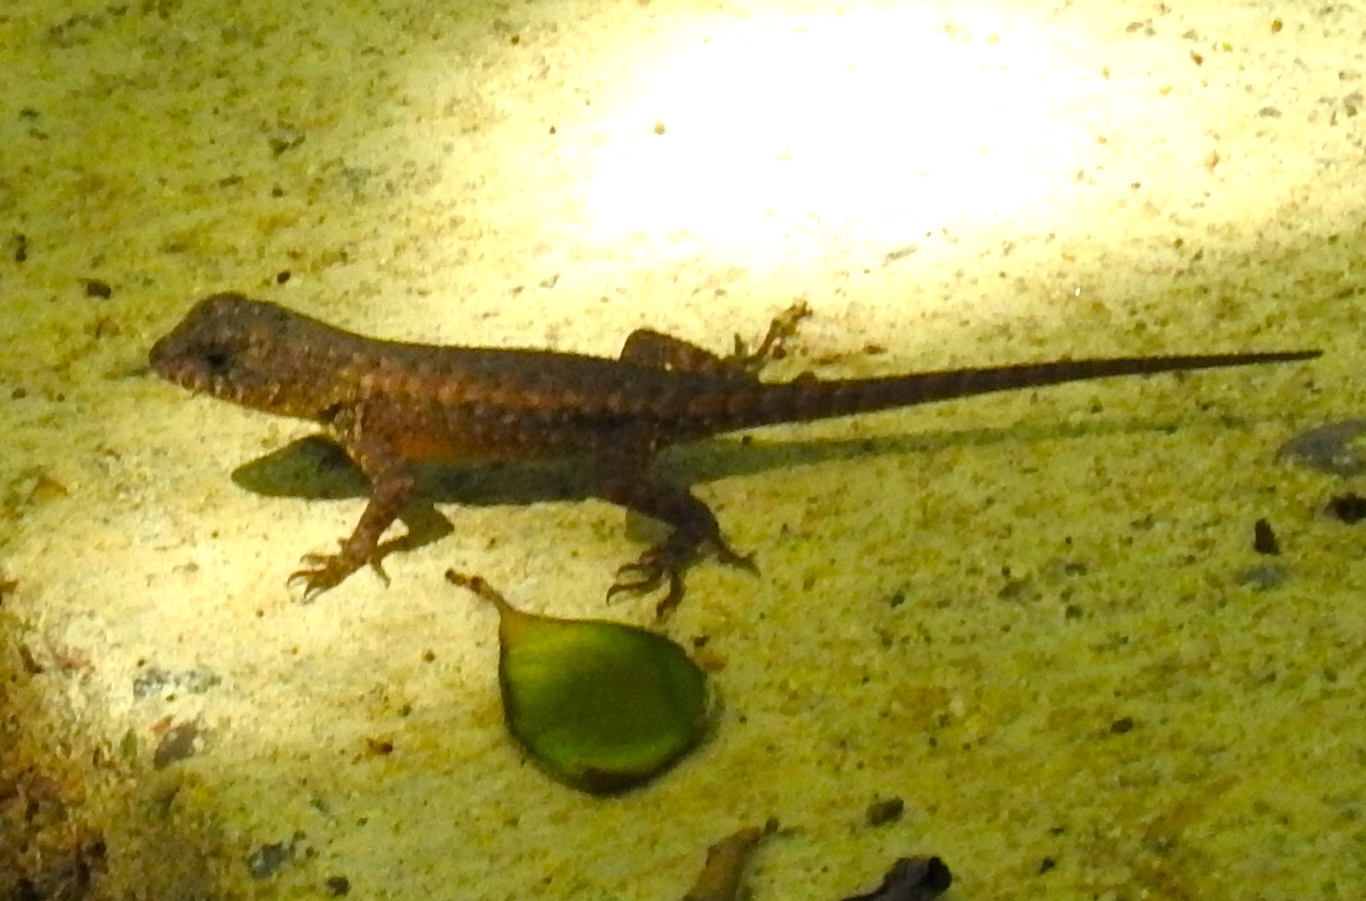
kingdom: Animalia
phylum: Chordata
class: Squamata
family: Phrynosomatidae
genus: Sceloporus
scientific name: Sceloporus nelsoni
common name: Nelson's spiny lizard
